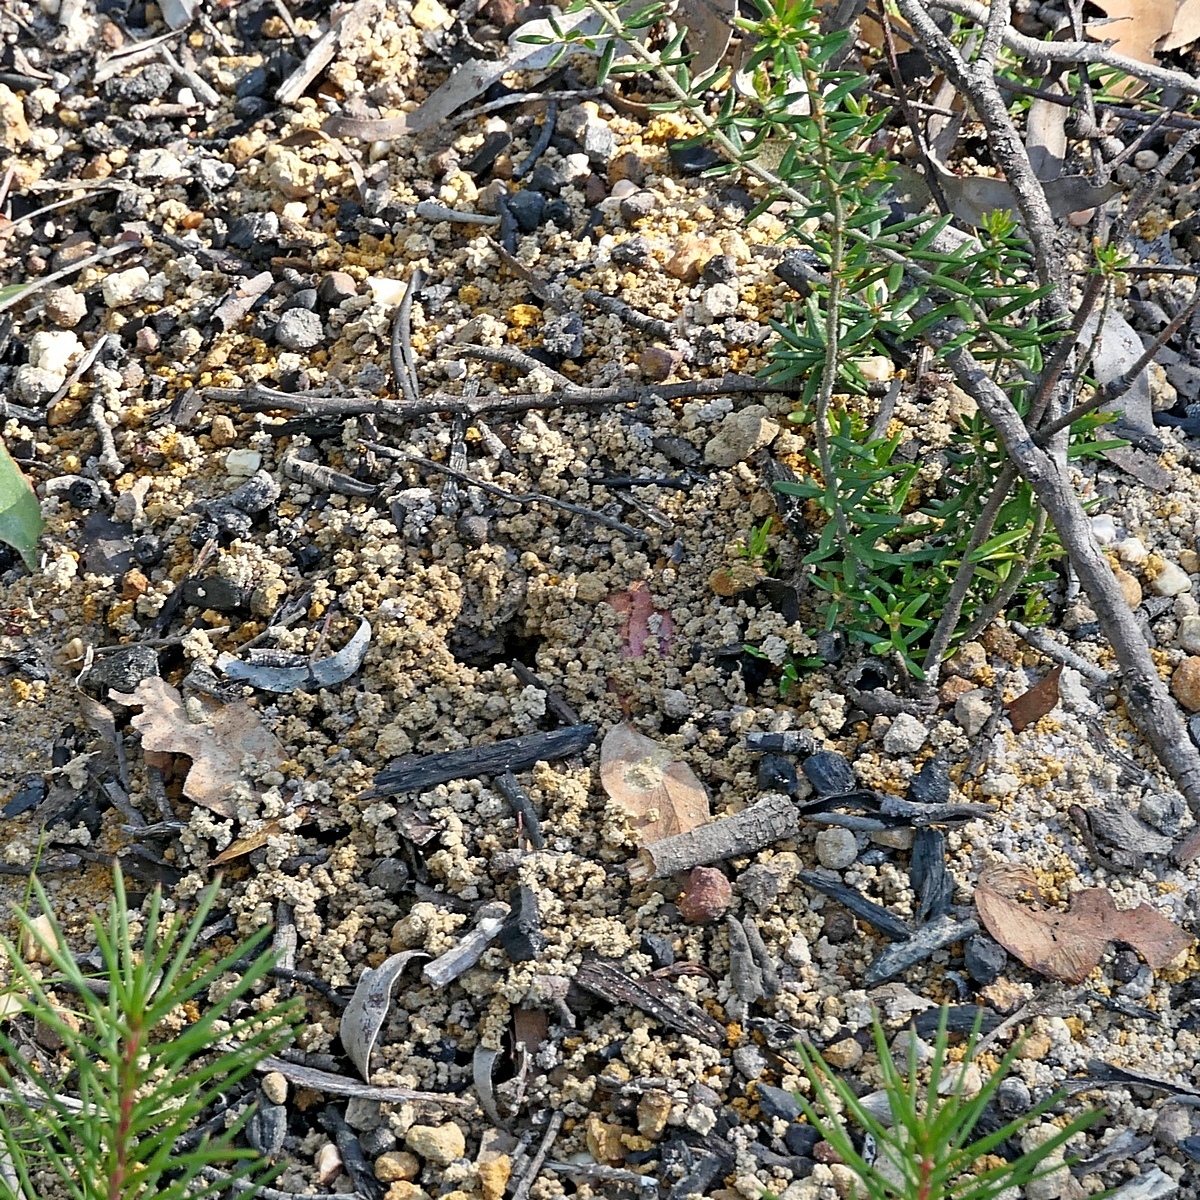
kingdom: Animalia
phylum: Arthropoda
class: Insecta
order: Hymenoptera
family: Formicidae
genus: Myrmecia
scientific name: Myrmecia simillima
